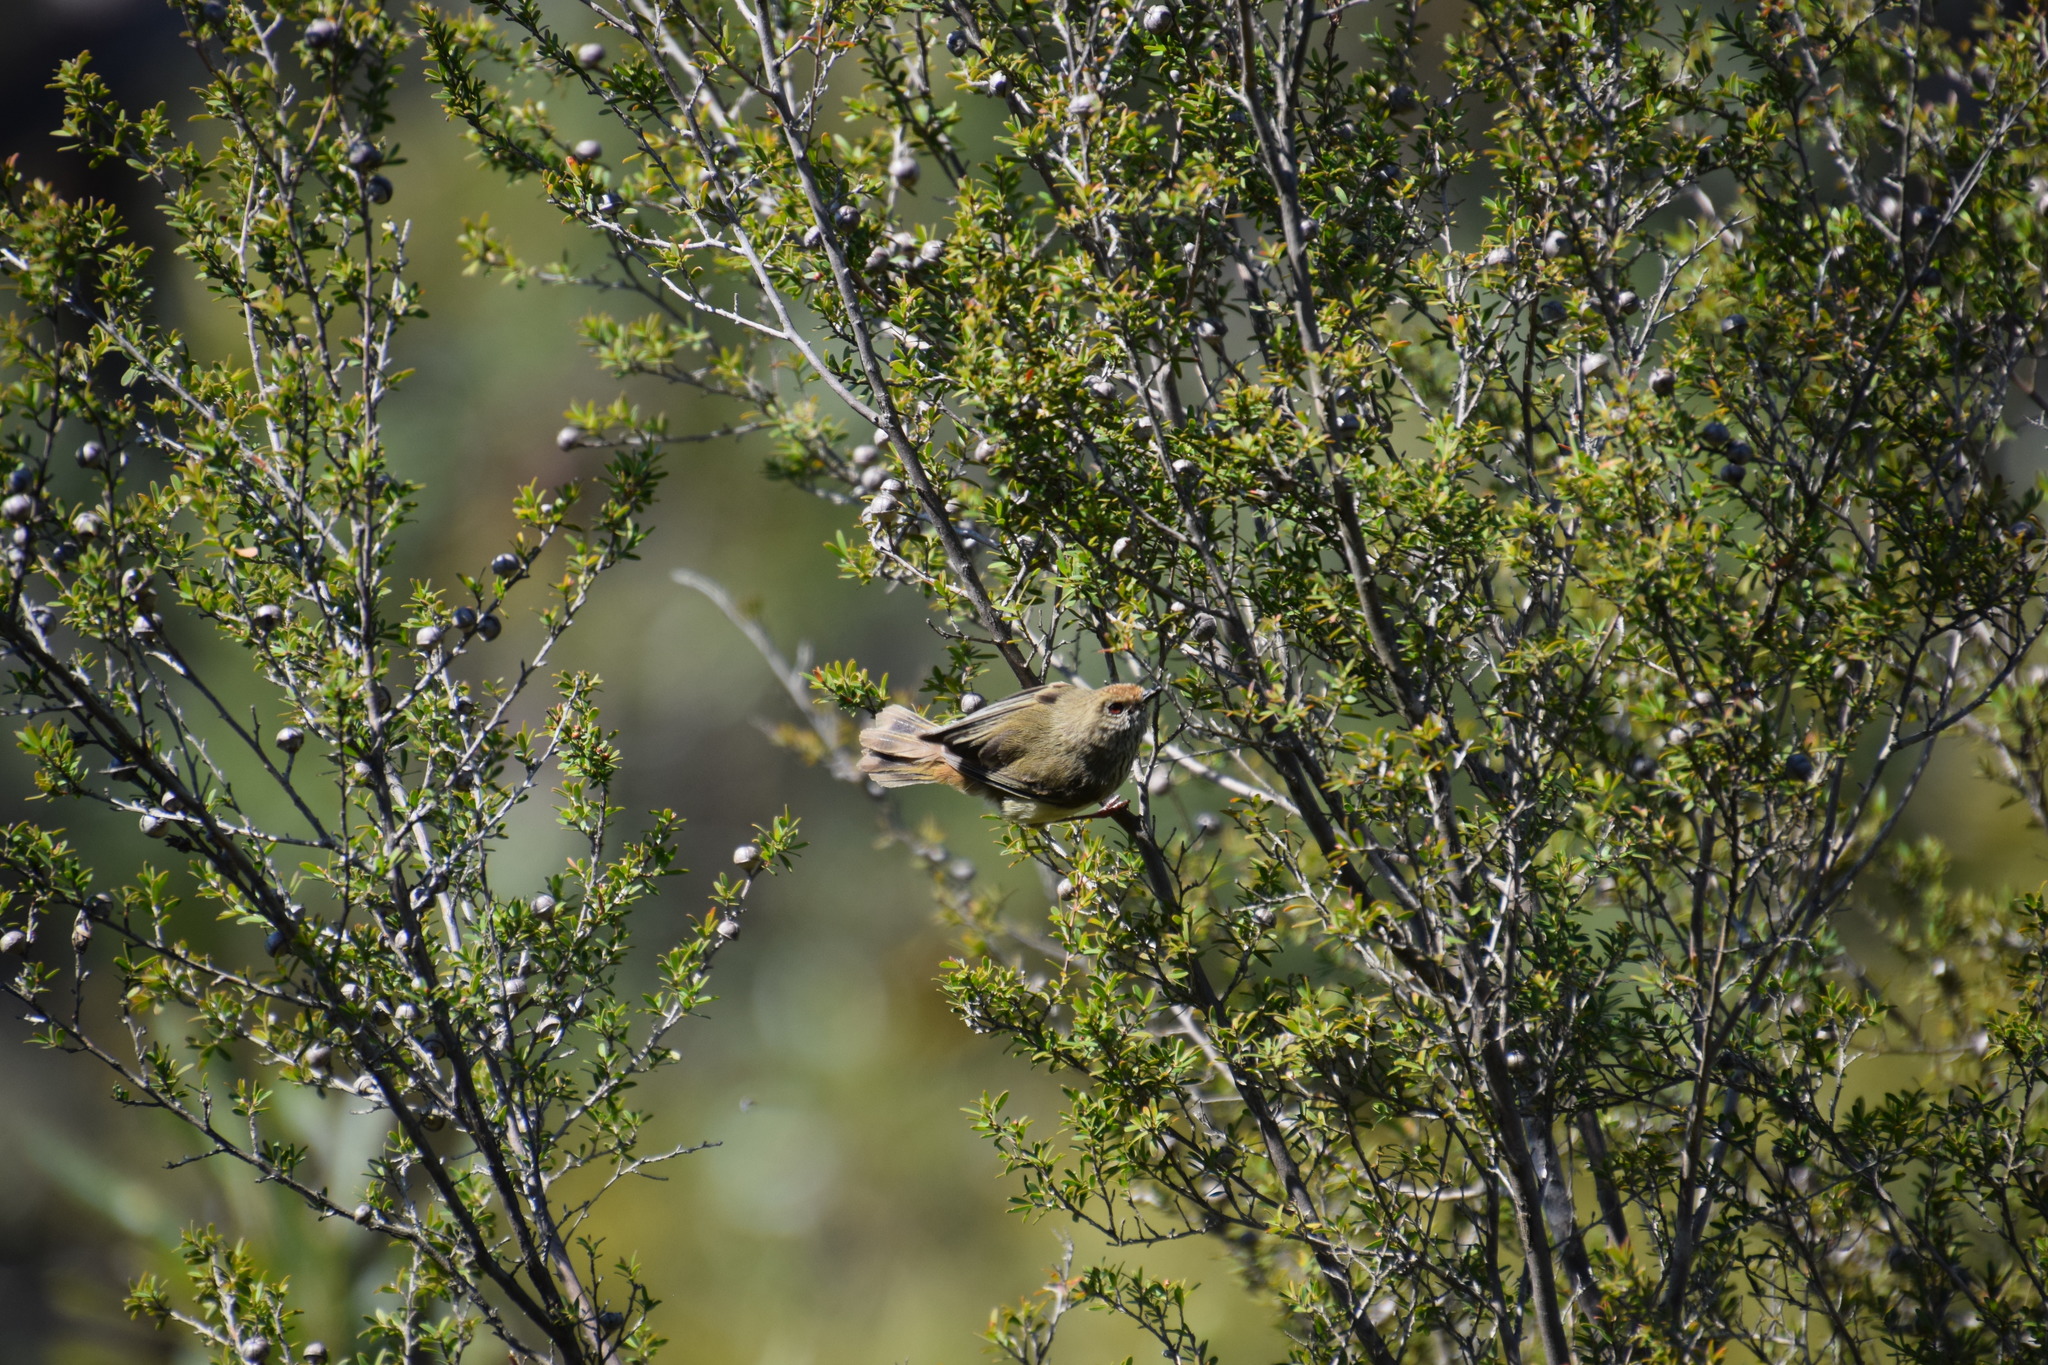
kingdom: Animalia
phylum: Chordata
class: Aves
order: Passeriformes
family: Acanthizidae
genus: Acanthiza
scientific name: Acanthiza pusilla
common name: Brown thornbill
